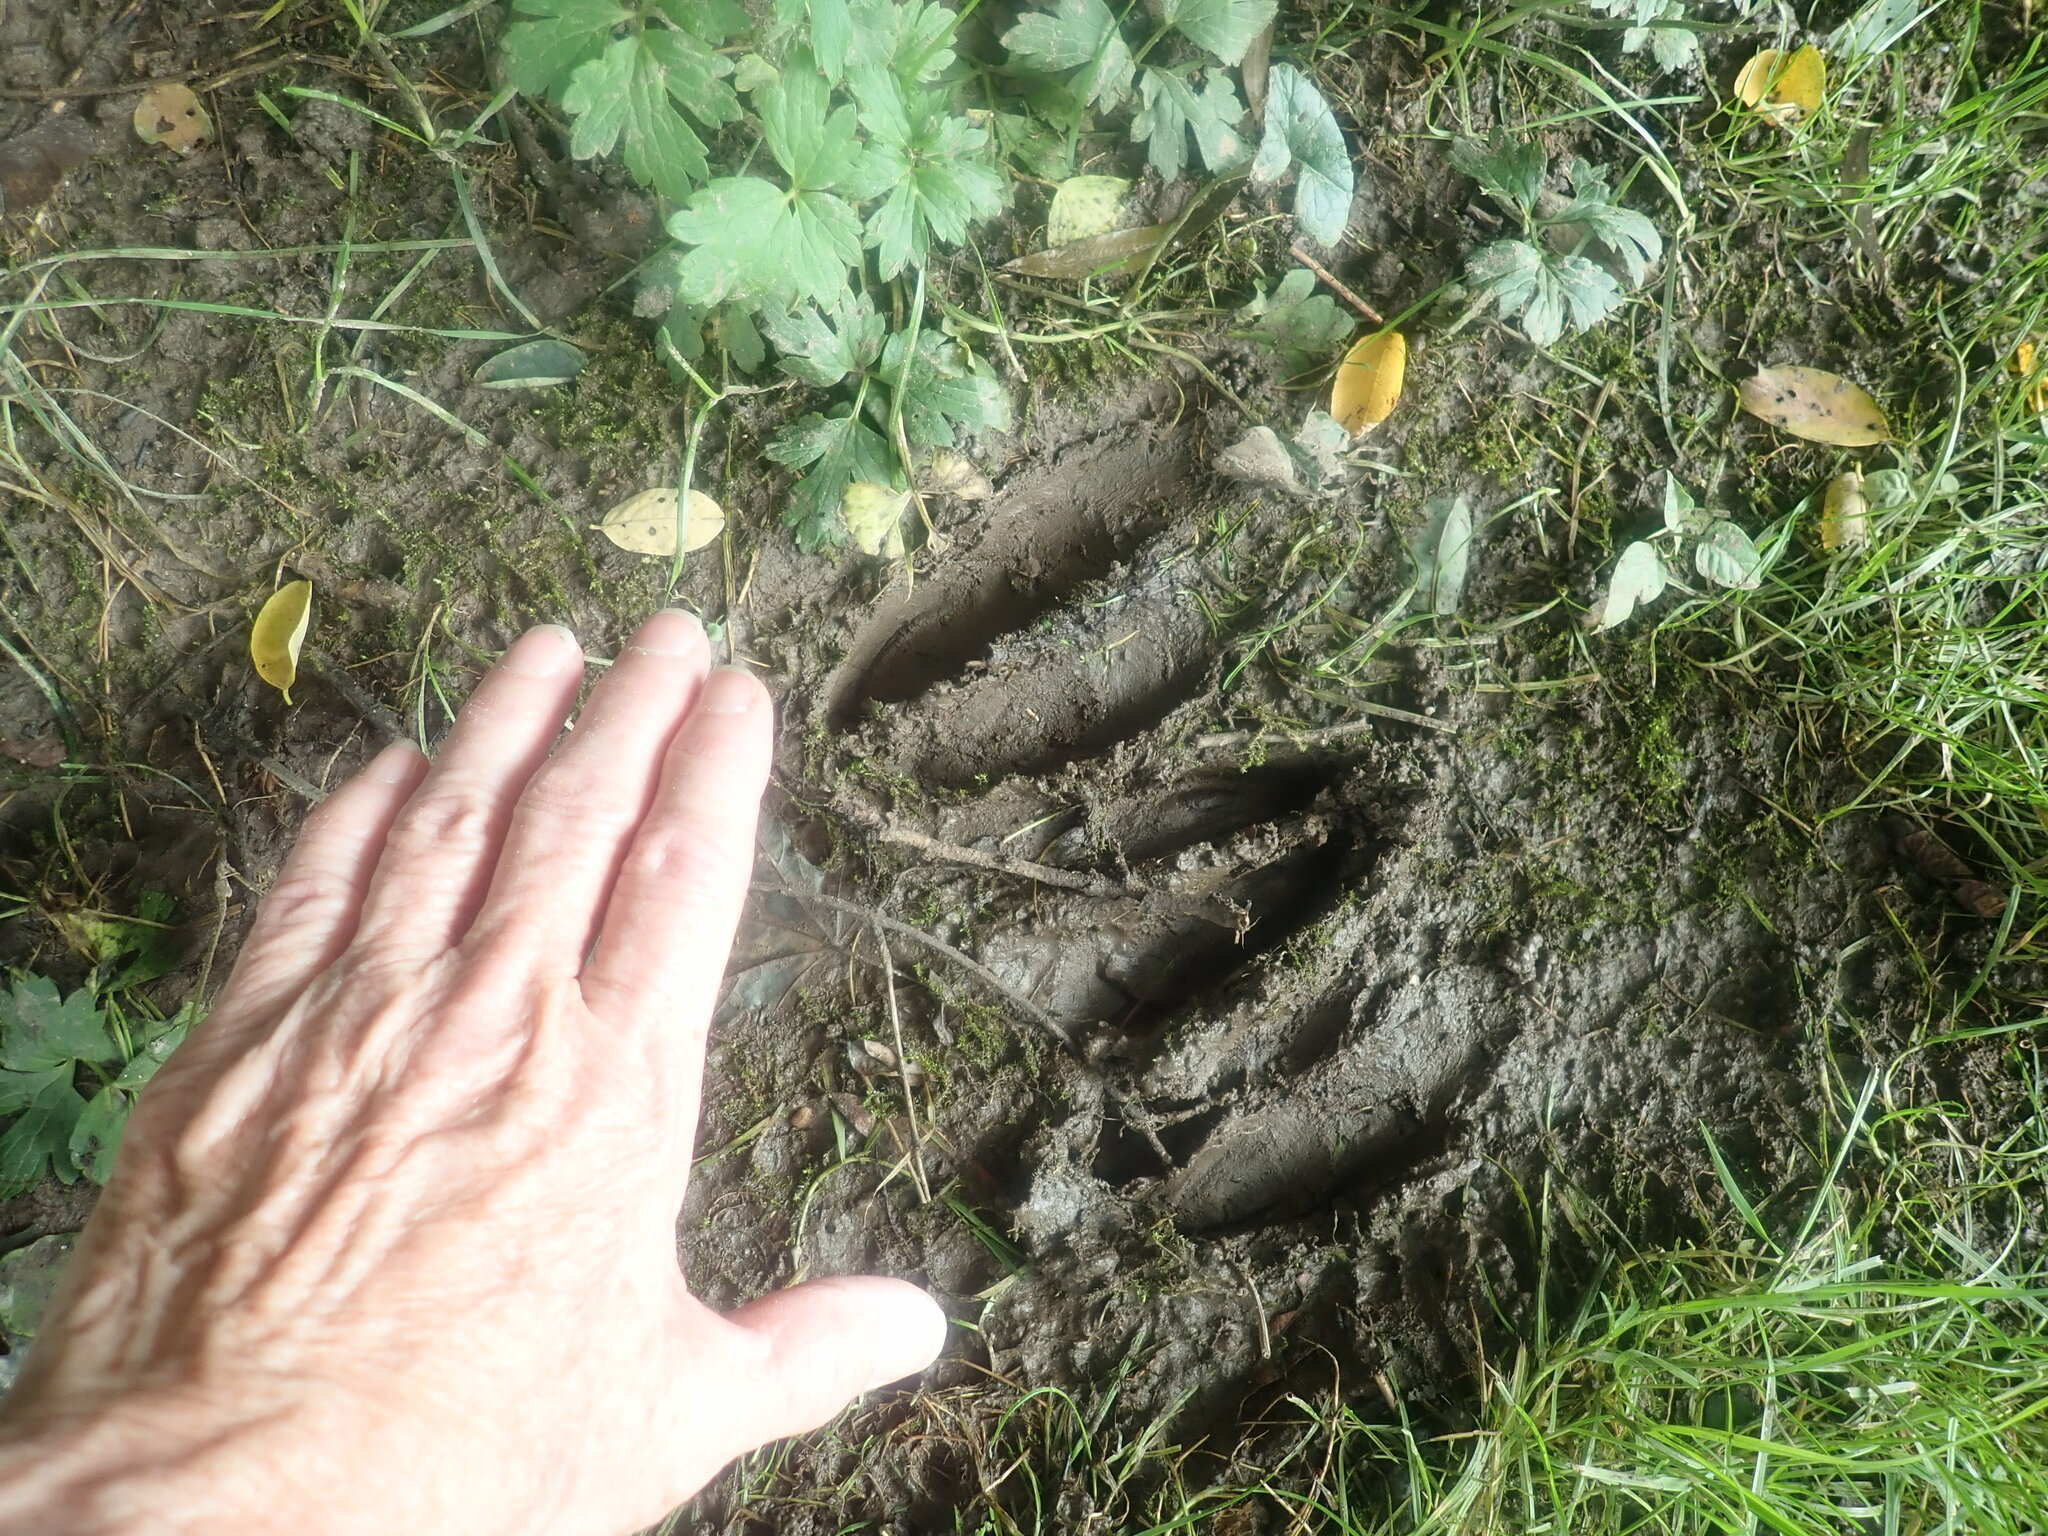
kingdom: Animalia
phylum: Chordata
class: Mammalia
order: Artiodactyla
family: Cervidae
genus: Odocoileus
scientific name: Odocoileus virginianus
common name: White-tailed deer
